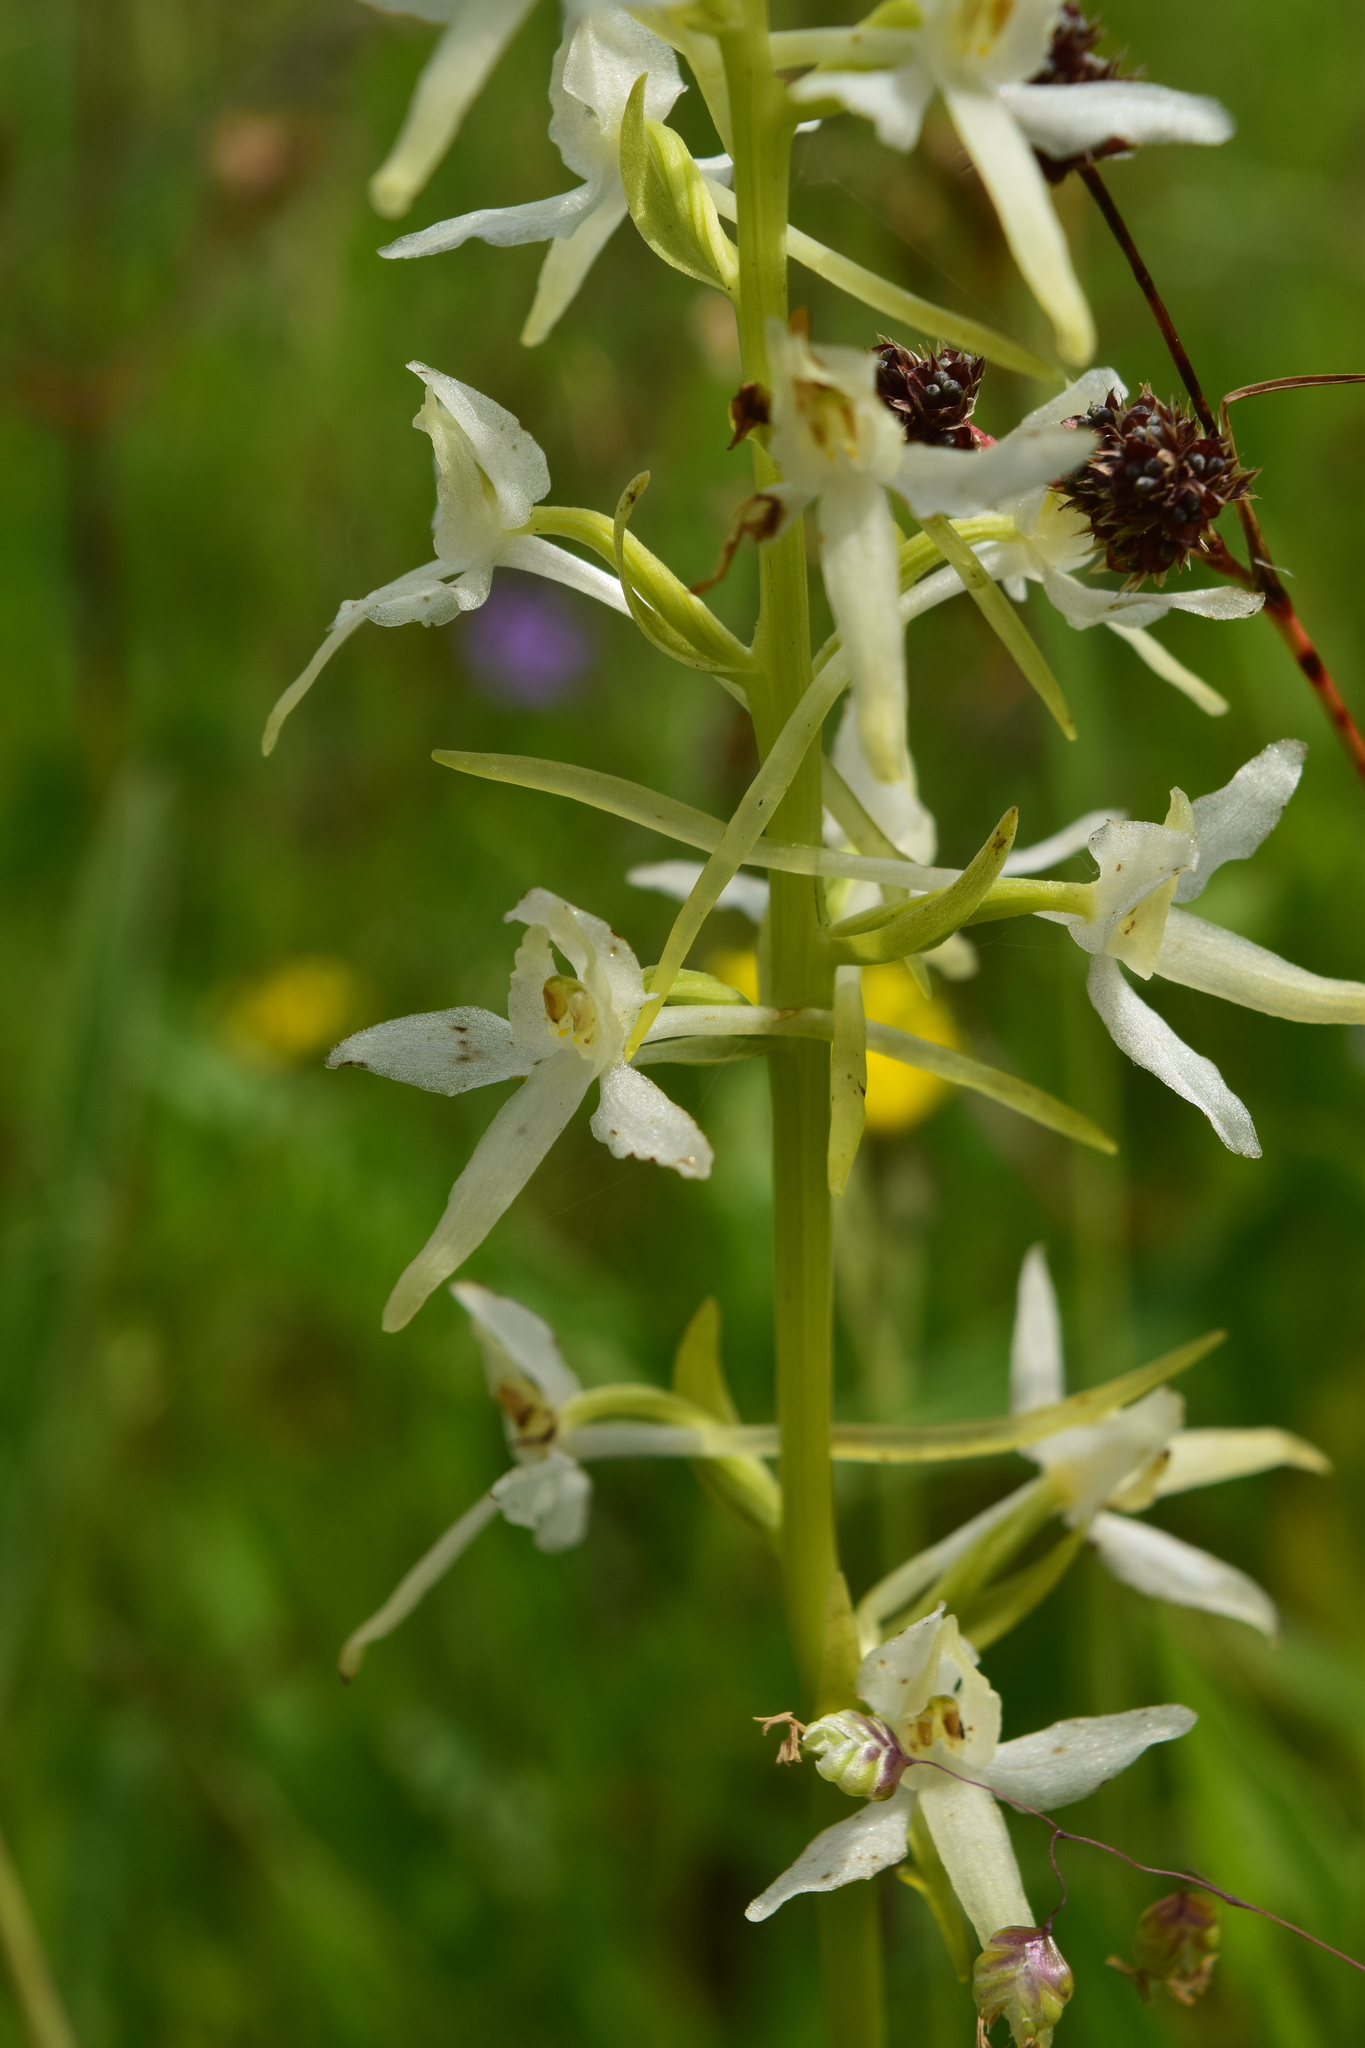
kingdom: Plantae
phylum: Tracheophyta
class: Liliopsida
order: Asparagales
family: Orchidaceae
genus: Platanthera
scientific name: Platanthera bifolia
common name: Lesser butterfly-orchid
